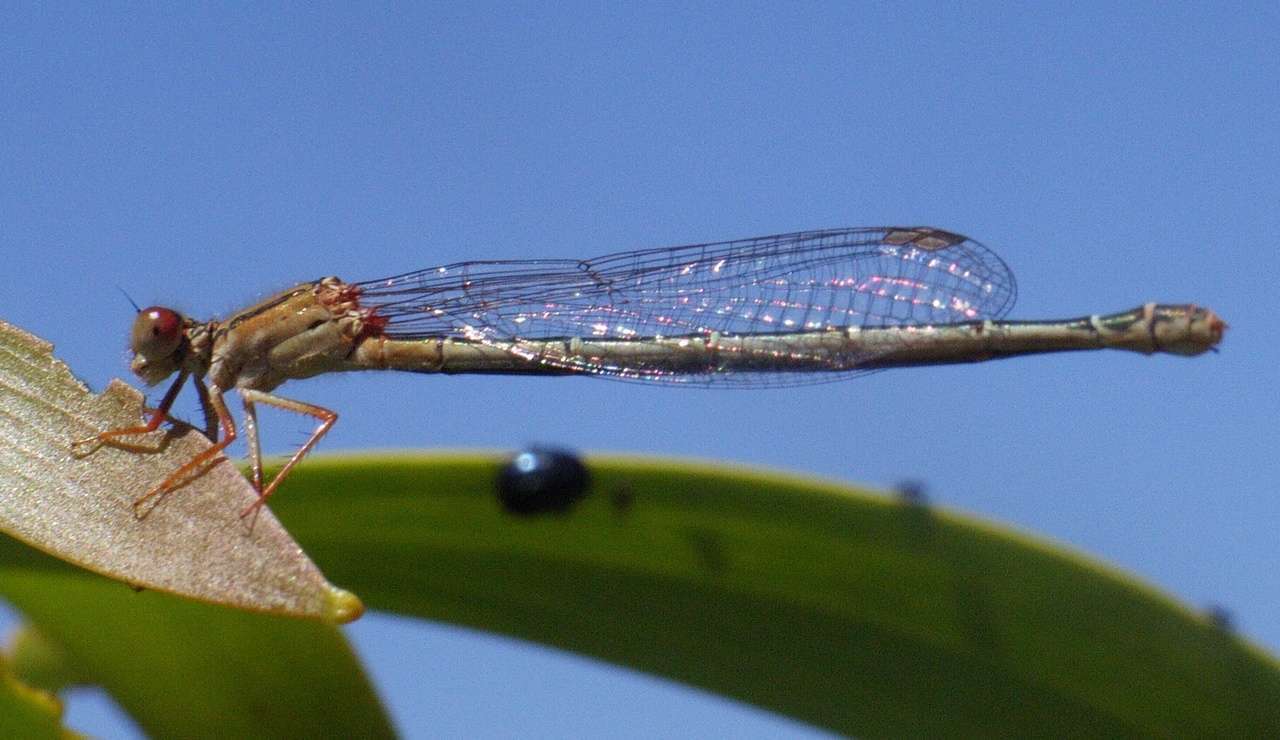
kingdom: Animalia
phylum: Arthropoda
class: Insecta
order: Odonata
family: Coenagrionidae
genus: Xanthagrion
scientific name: Xanthagrion erythroneurum
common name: Red and blue damsel
